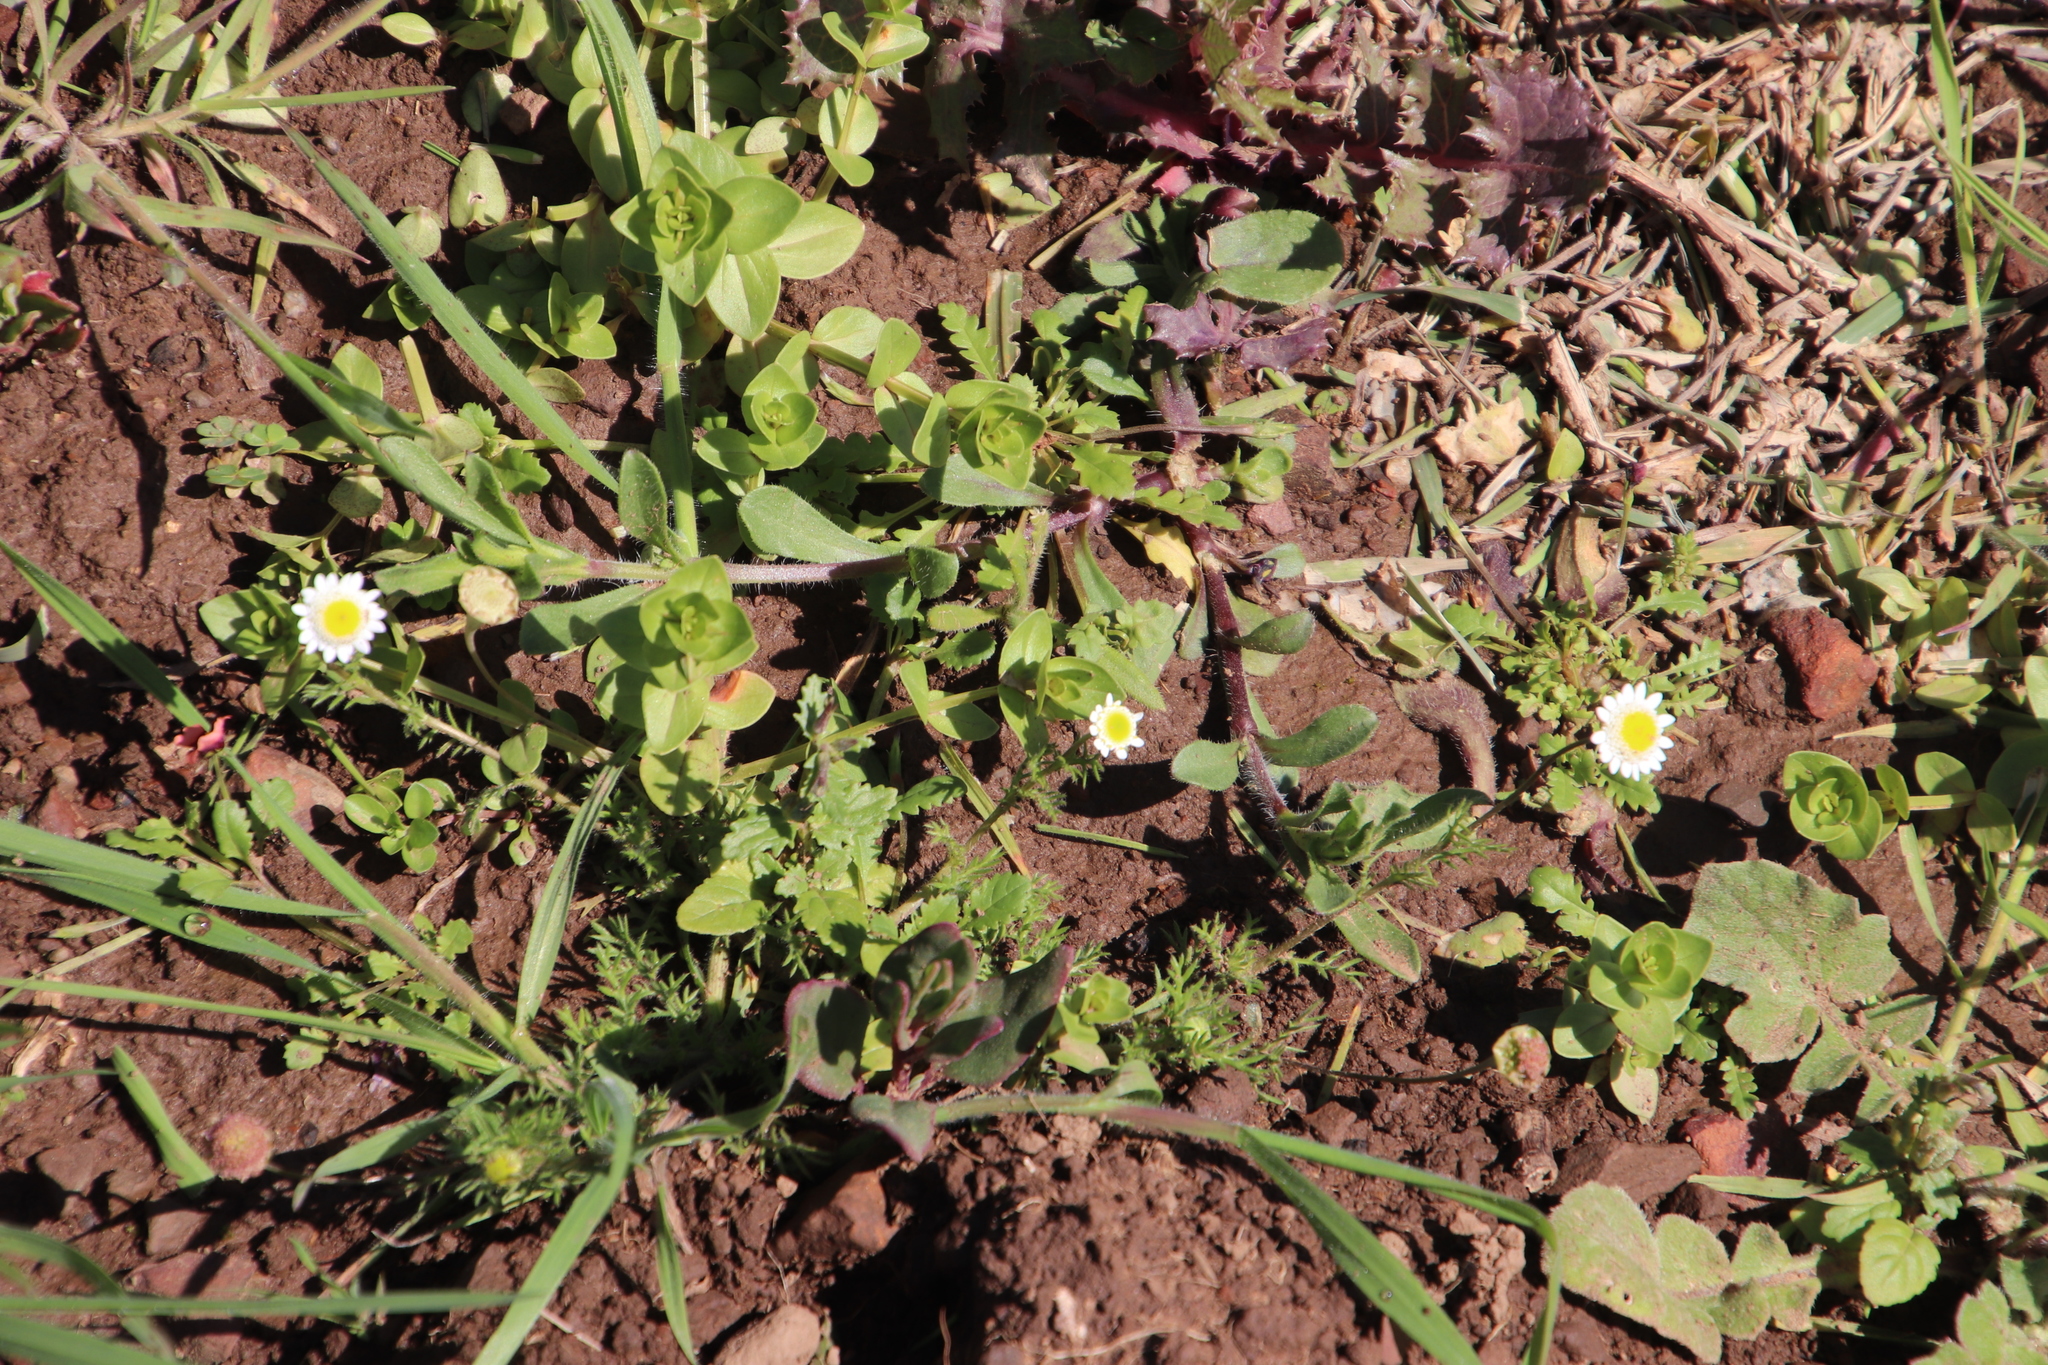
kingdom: Plantae
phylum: Tracheophyta
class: Magnoliopsida
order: Asterales
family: Asteraceae
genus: Cotula
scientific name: Cotula turbinata
